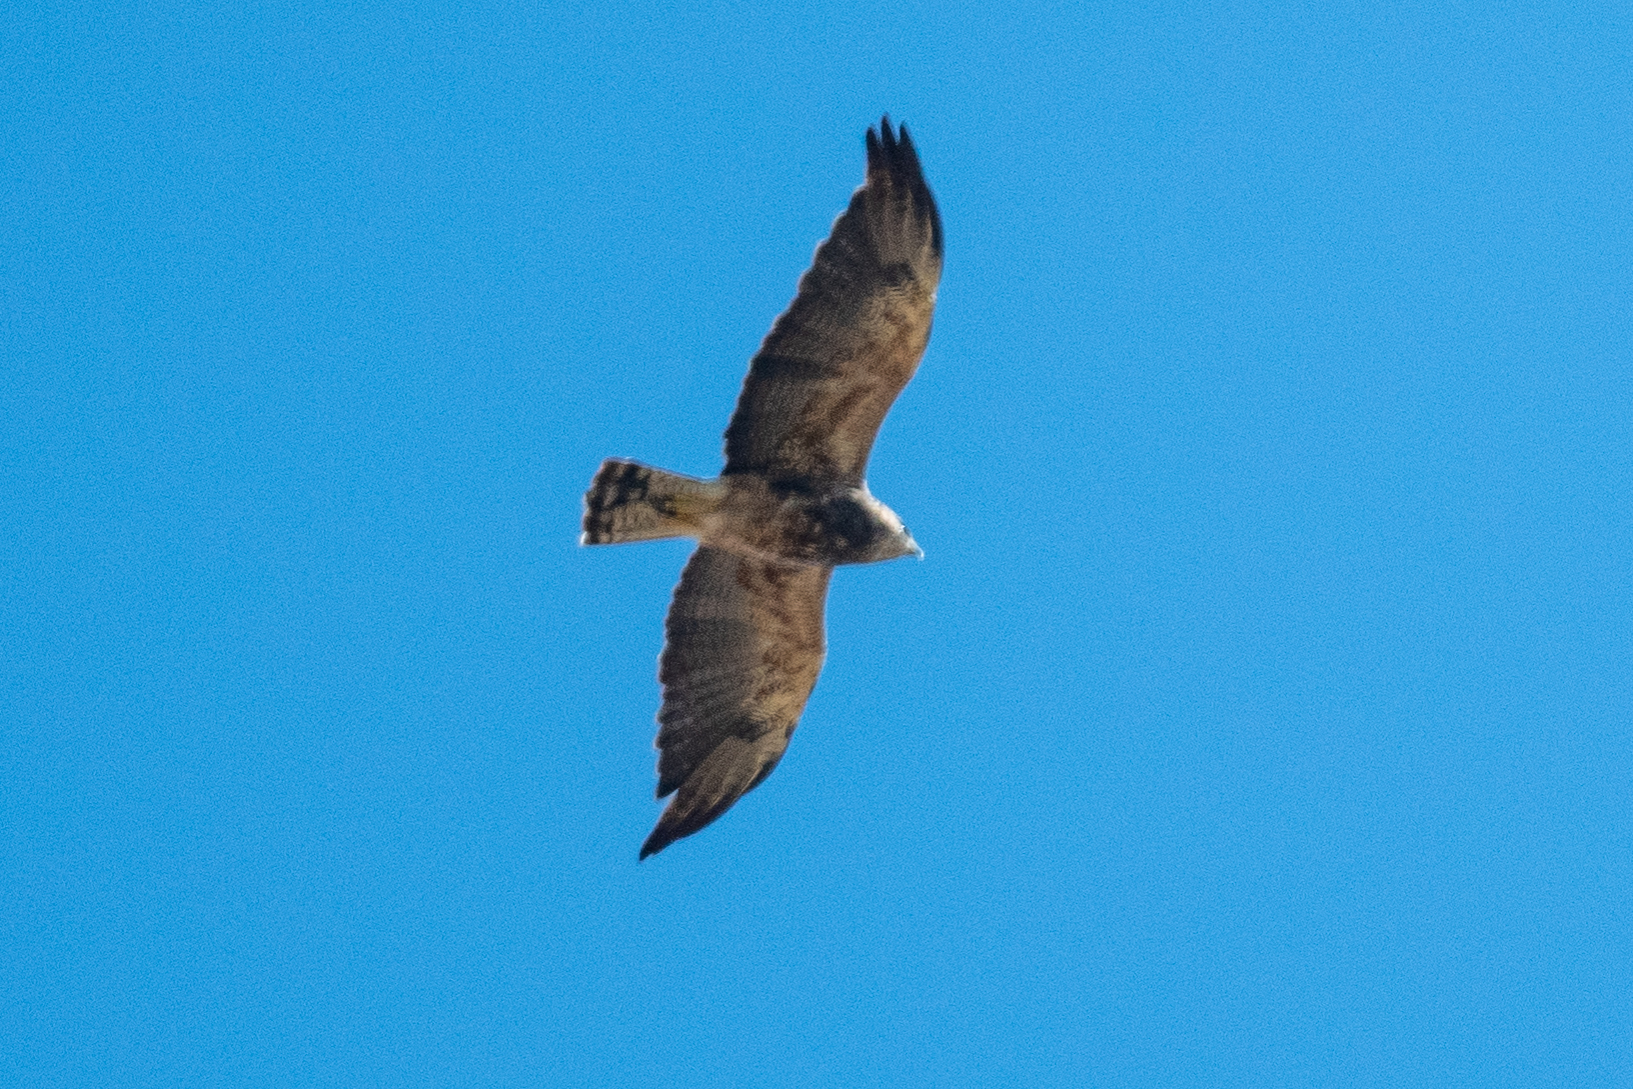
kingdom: Animalia
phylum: Chordata
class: Aves
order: Accipitriformes
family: Accipitridae
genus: Buteo
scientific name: Buteo swainsoni
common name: Swainson's hawk
